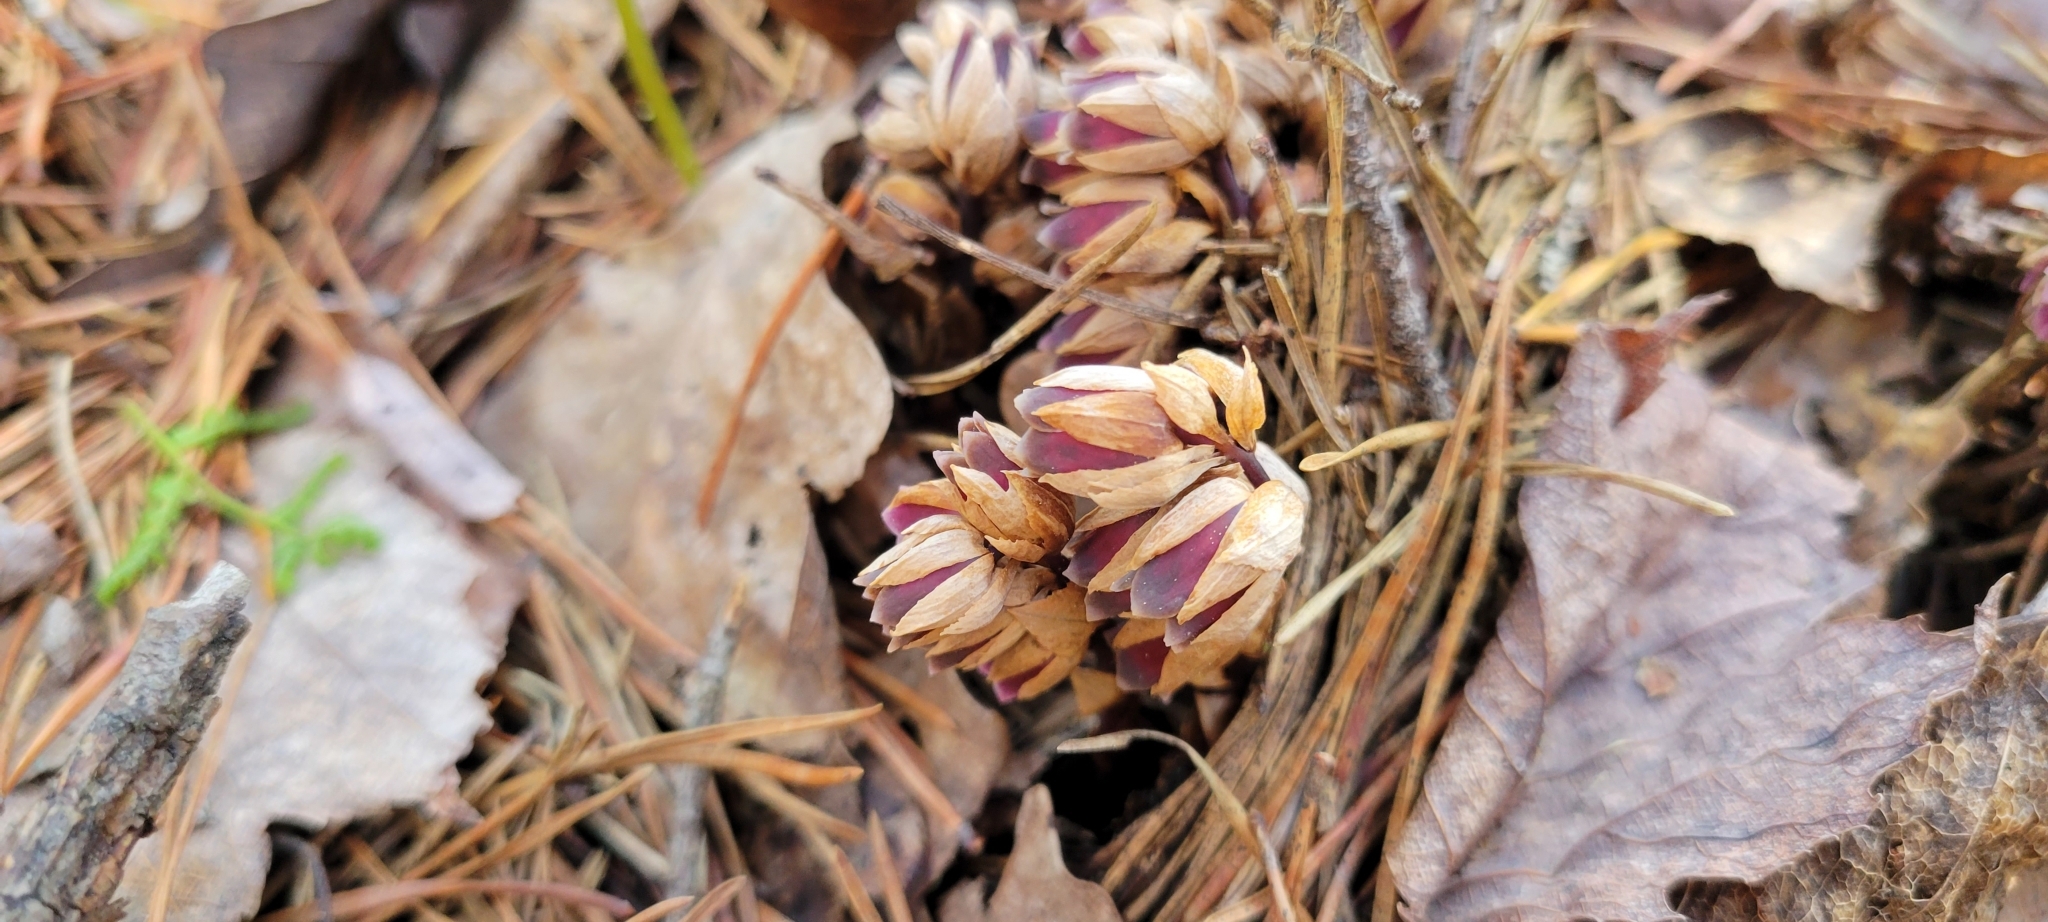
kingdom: Plantae
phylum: Tracheophyta
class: Magnoliopsida
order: Ericales
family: Ericaceae
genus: Monotropsis
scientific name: Monotropsis odorata
